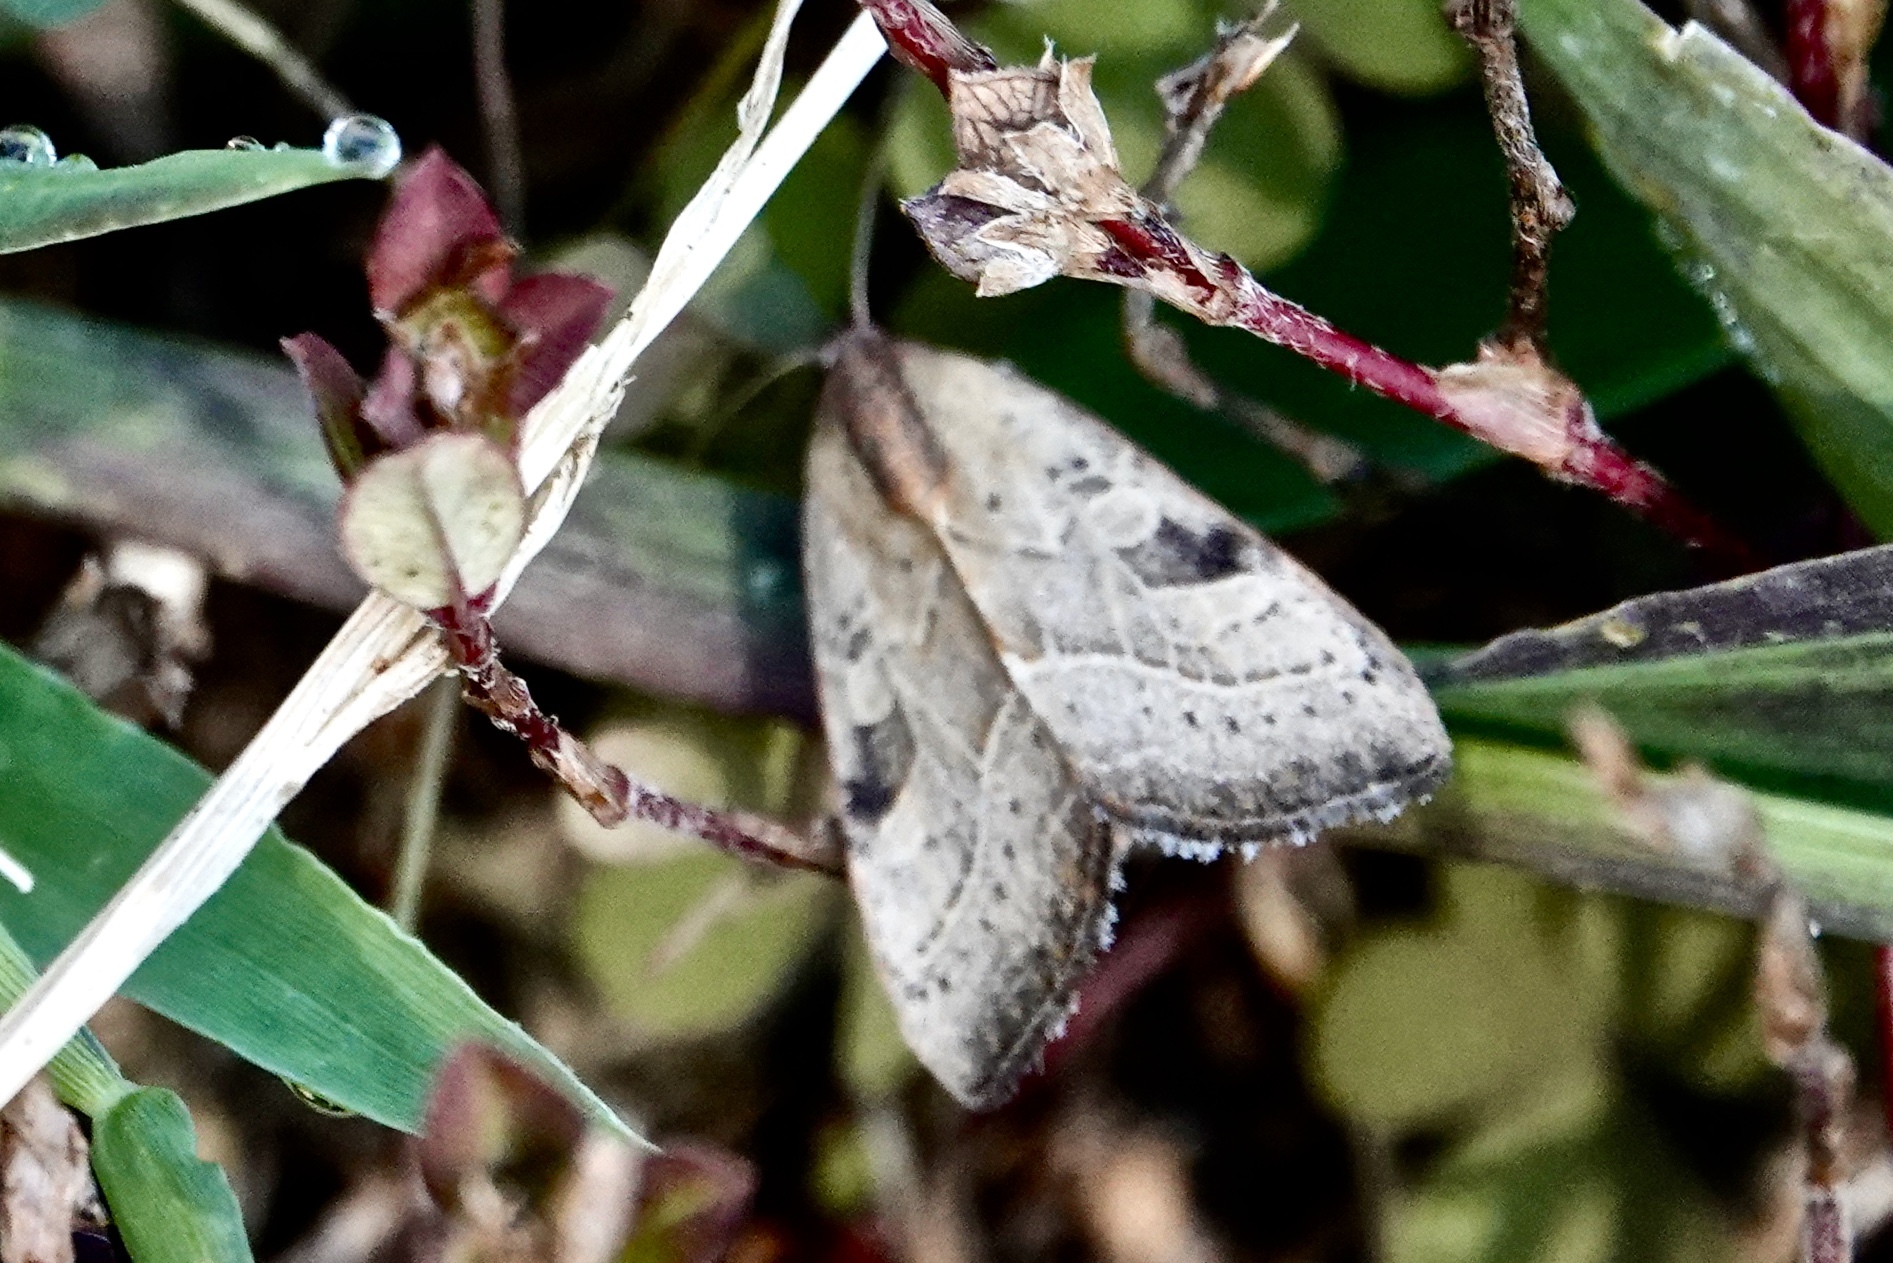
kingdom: Animalia
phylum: Arthropoda
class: Insecta
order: Lepidoptera
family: Noctuidae
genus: Galgula
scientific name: Galgula partita
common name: Wedgeling
